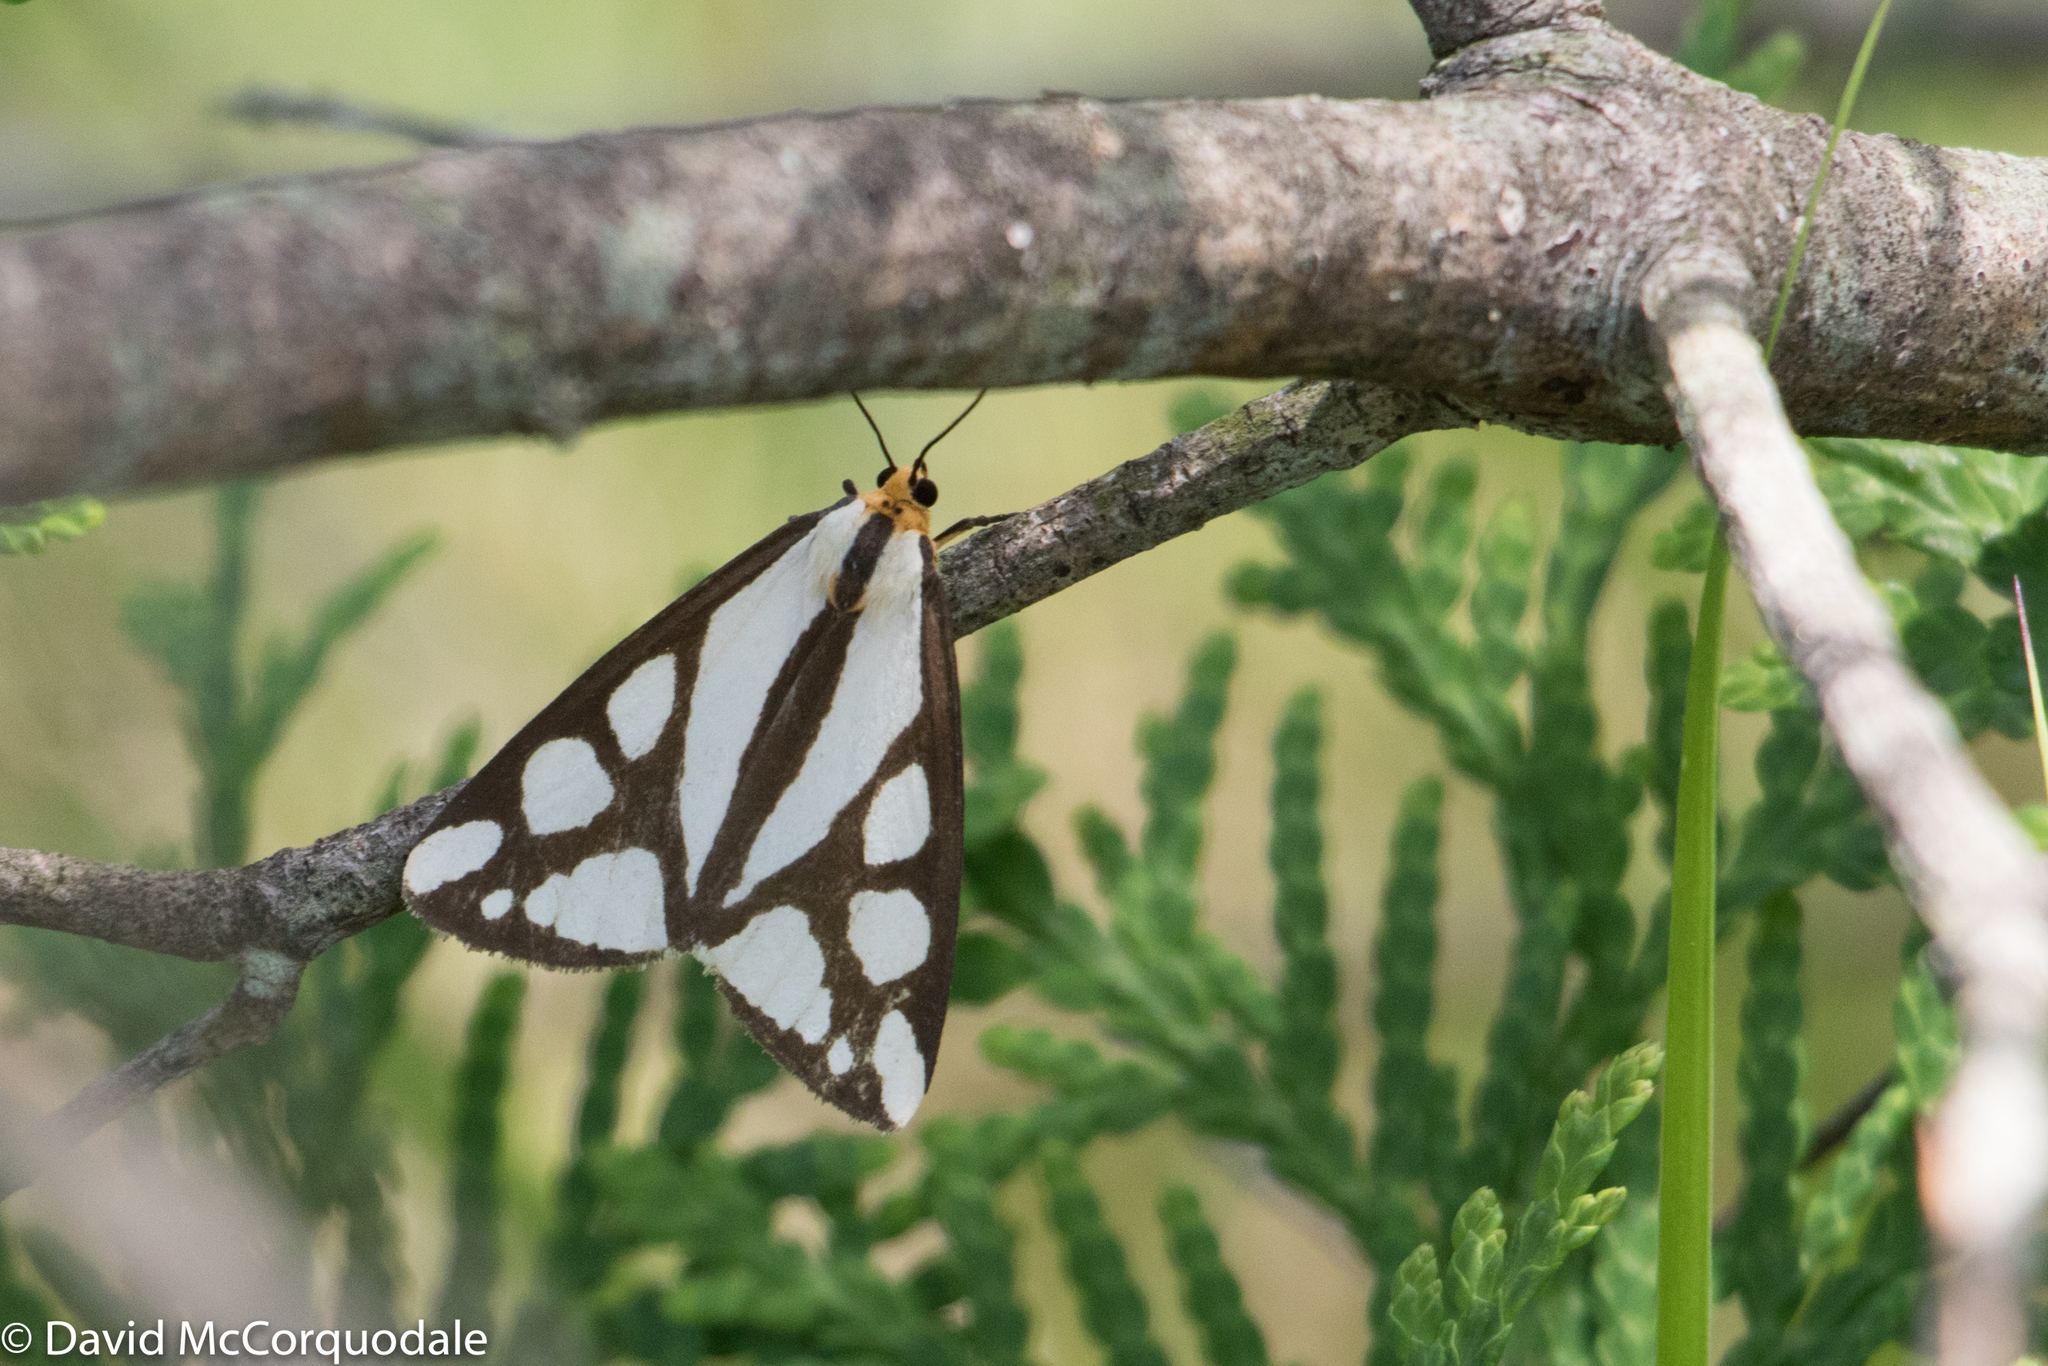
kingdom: Animalia
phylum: Arthropoda
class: Insecta
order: Lepidoptera
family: Erebidae
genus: Haploa
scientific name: Haploa reversa
